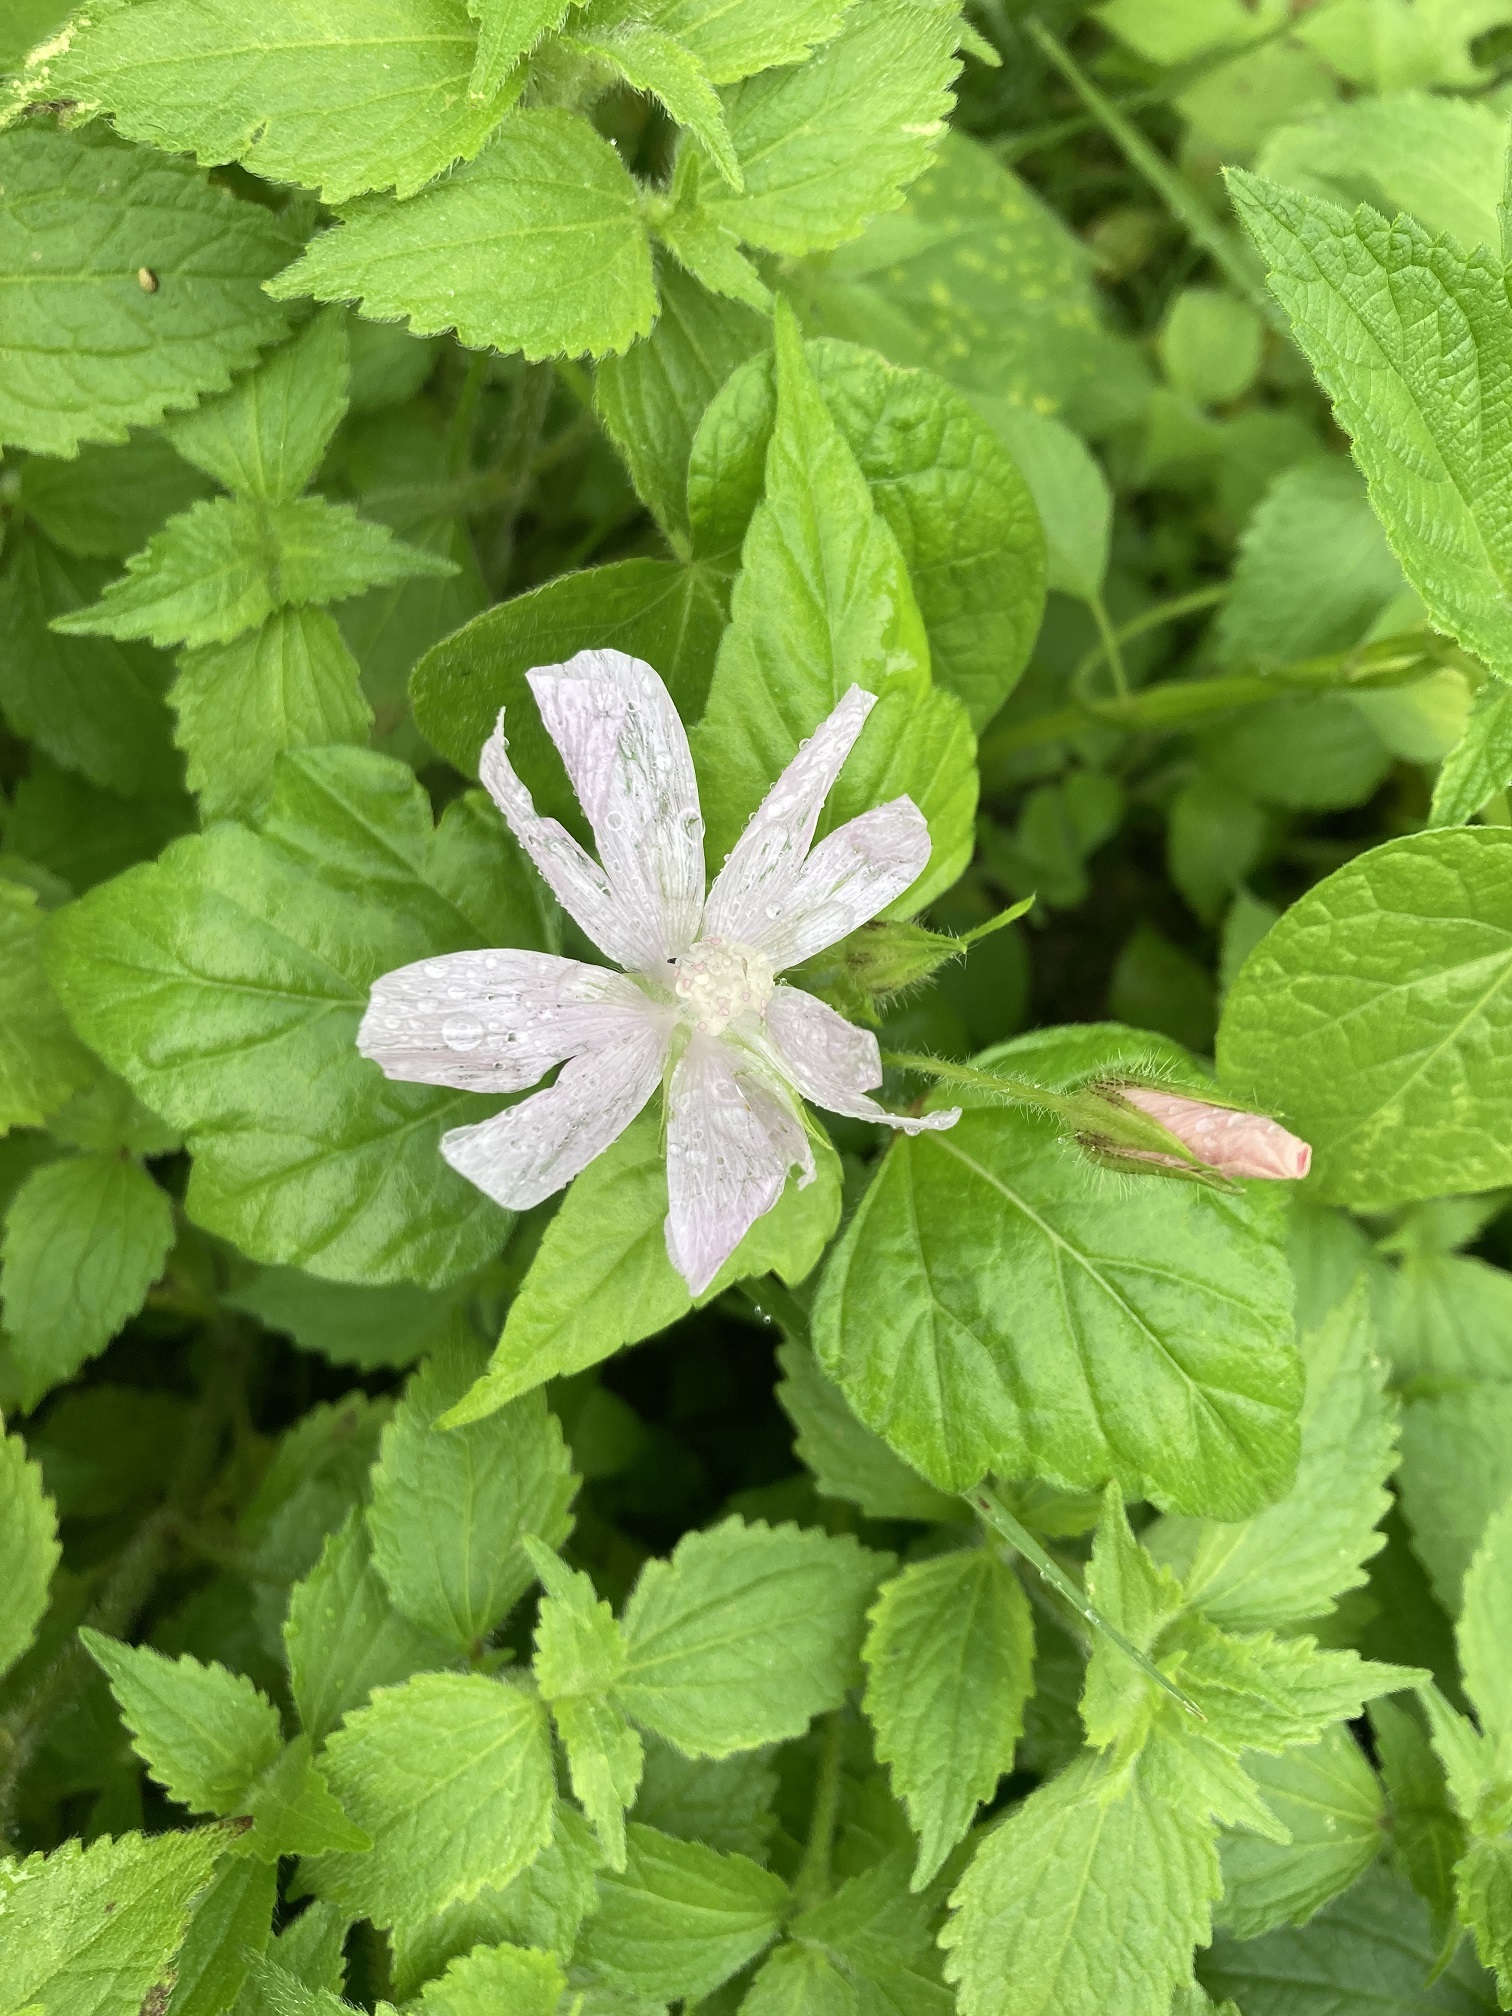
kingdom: Plantae
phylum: Tracheophyta
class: Magnoliopsida
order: Malvales
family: Malvaceae
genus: Anoda
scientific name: Anoda albiflora
